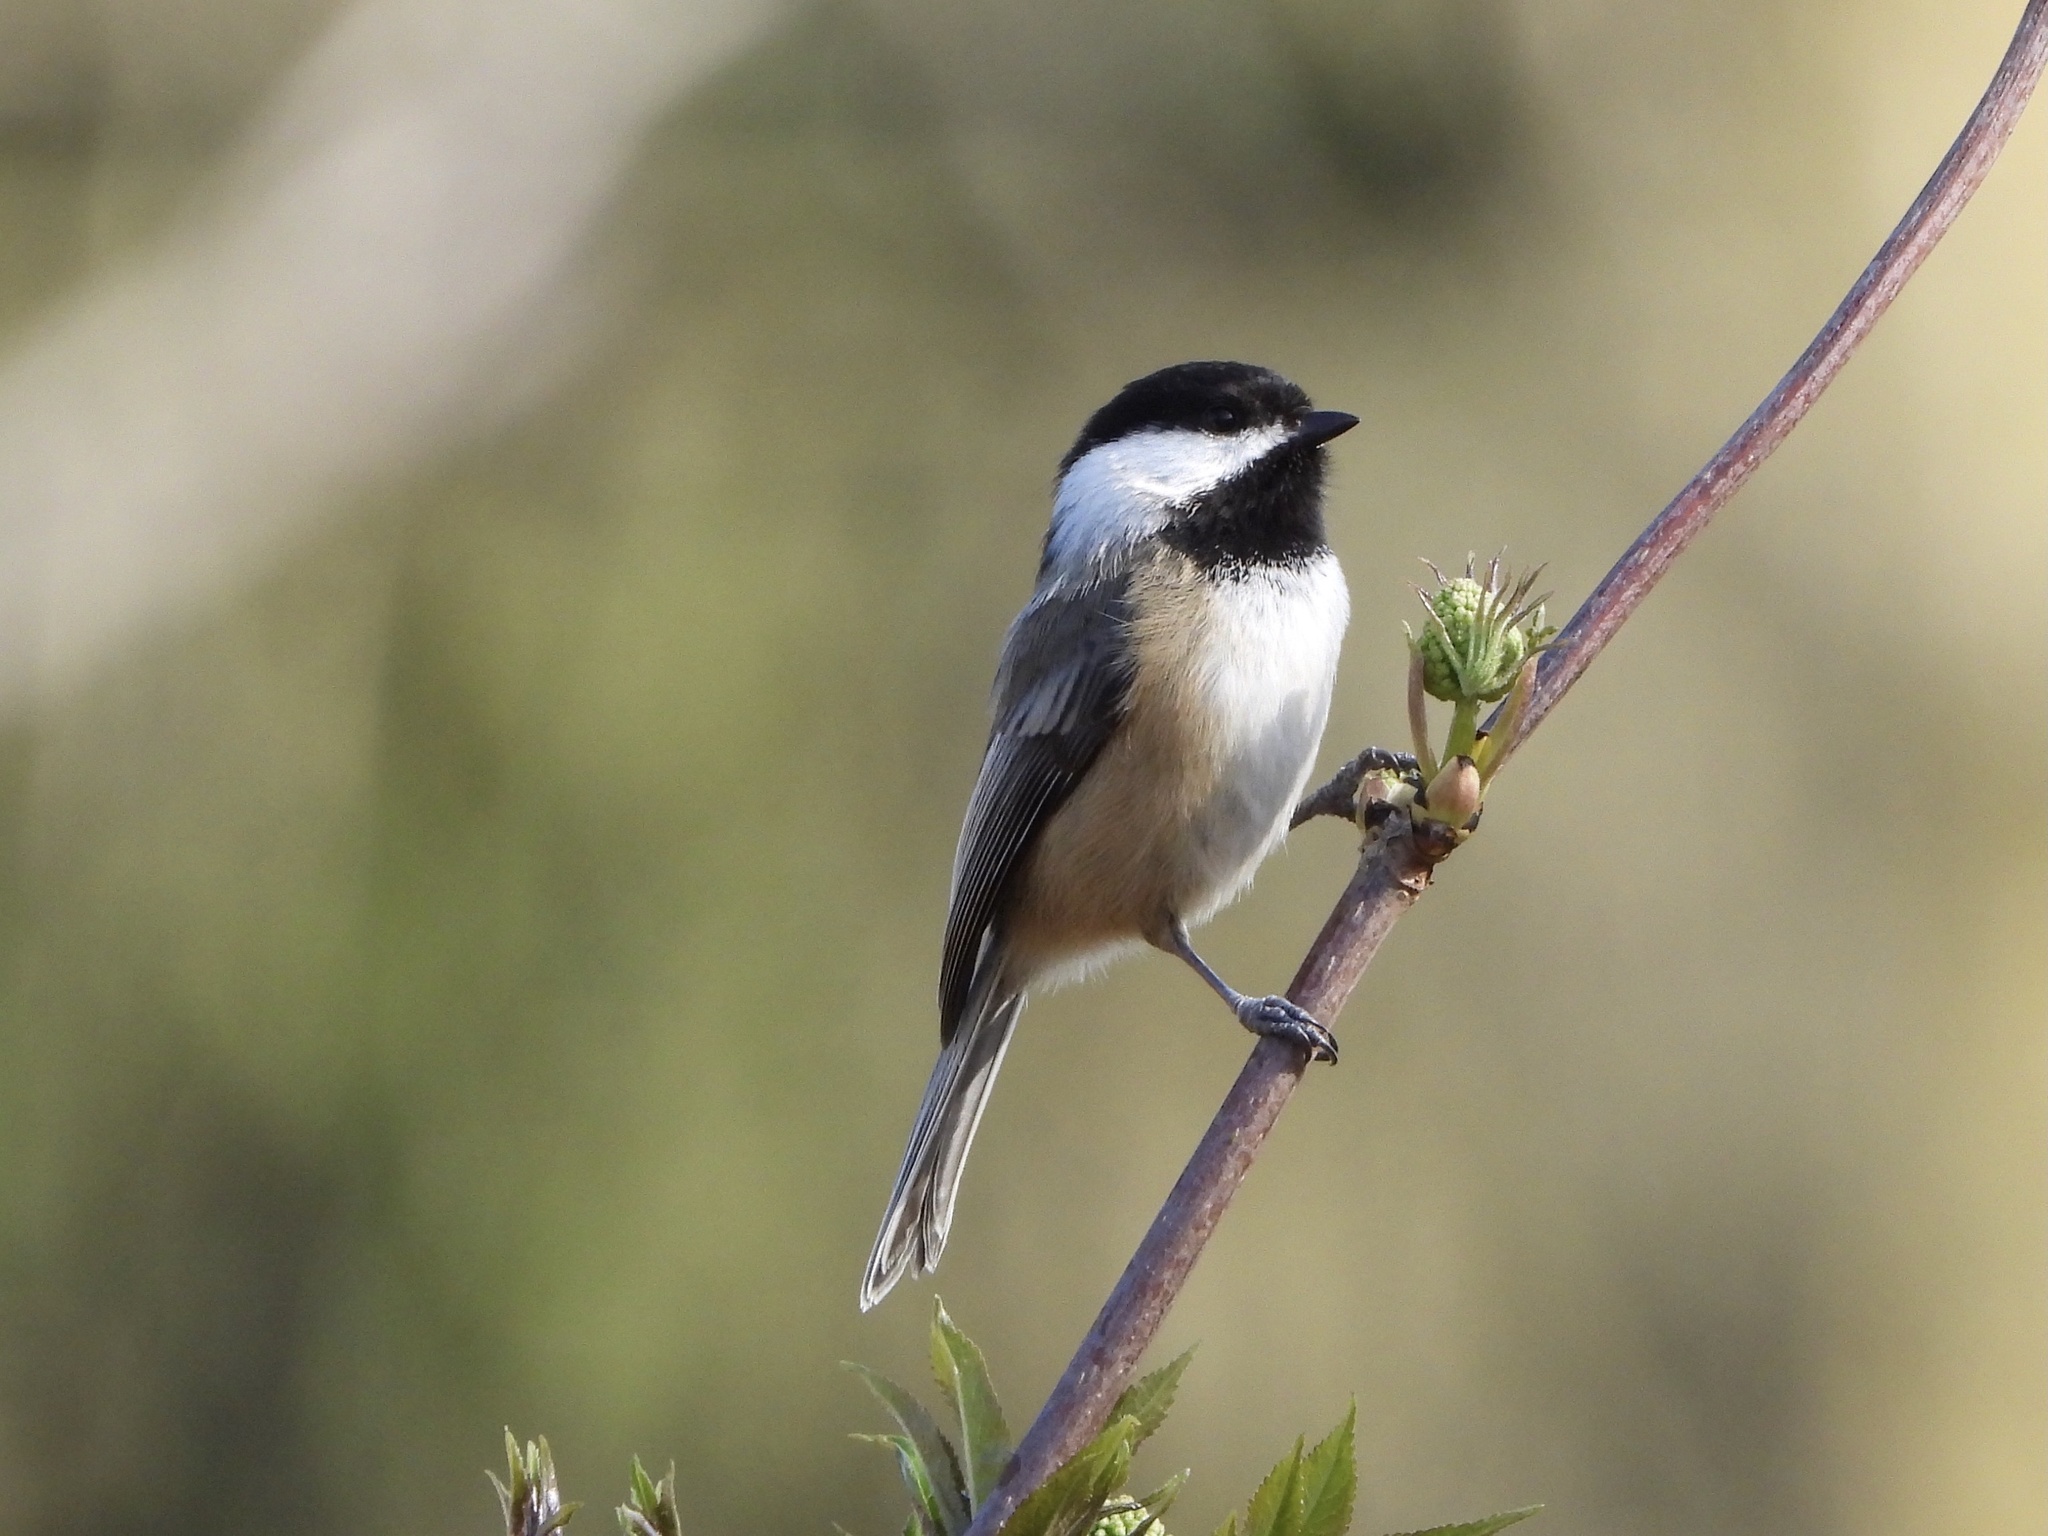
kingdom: Animalia
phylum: Chordata
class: Aves
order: Passeriformes
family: Paridae
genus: Poecile
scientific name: Poecile atricapillus
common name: Black-capped chickadee
